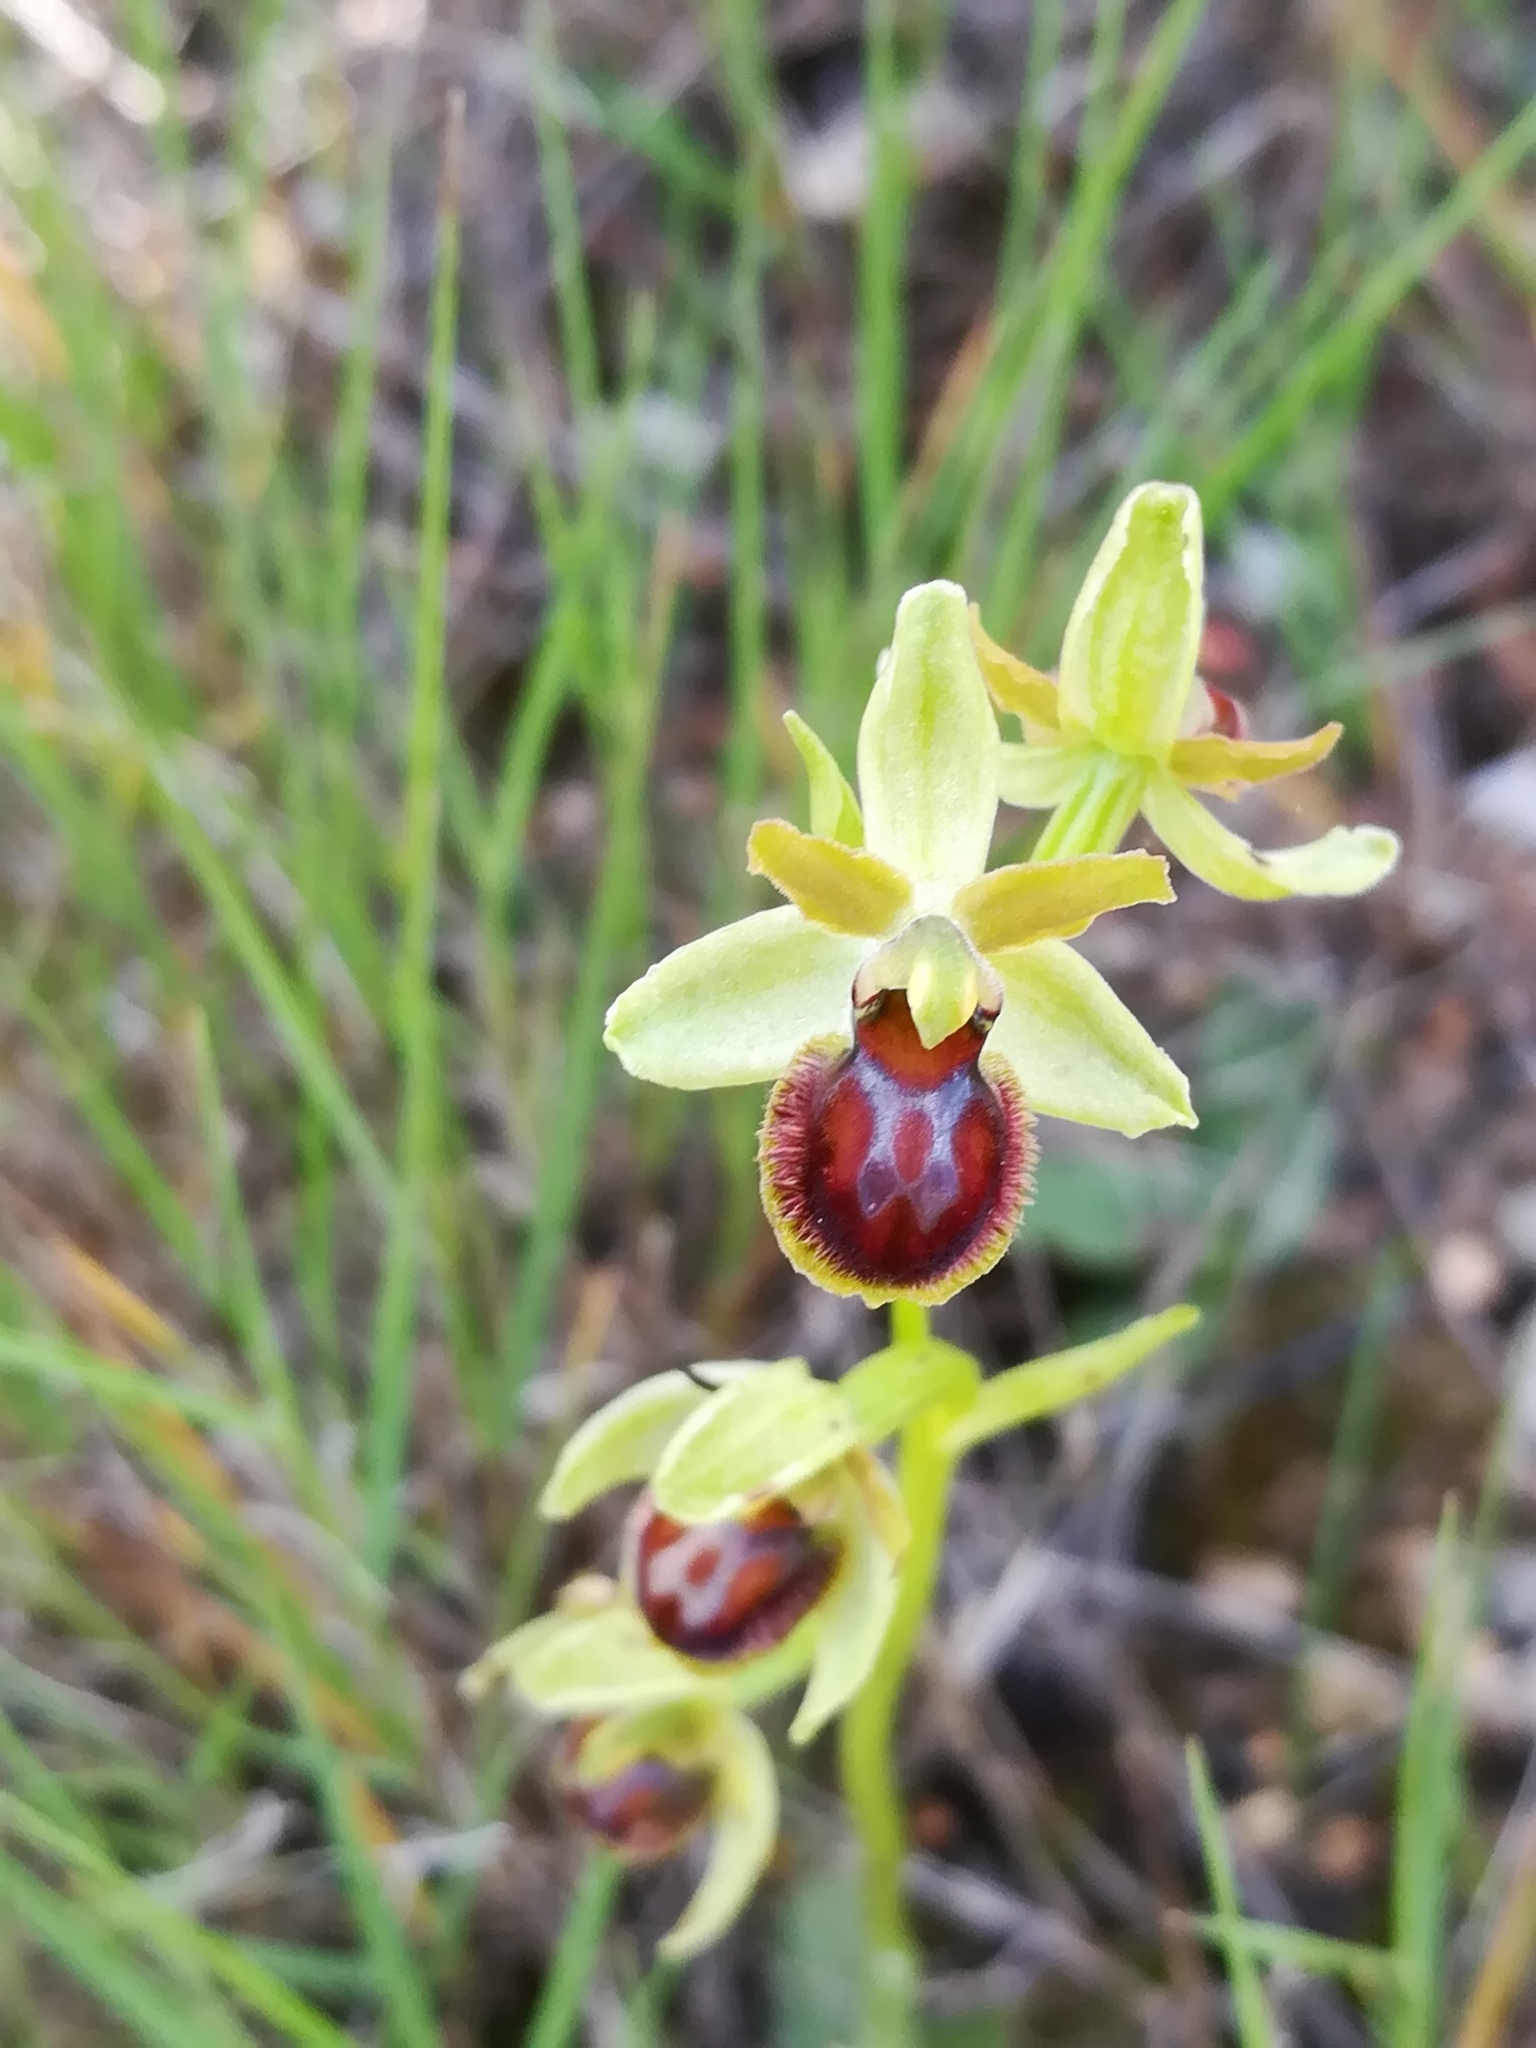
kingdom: Plantae
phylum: Tracheophyta
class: Liliopsida
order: Asparagales
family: Orchidaceae
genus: Ophrys
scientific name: Ophrys sphegodes
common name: Early spider-orchid
